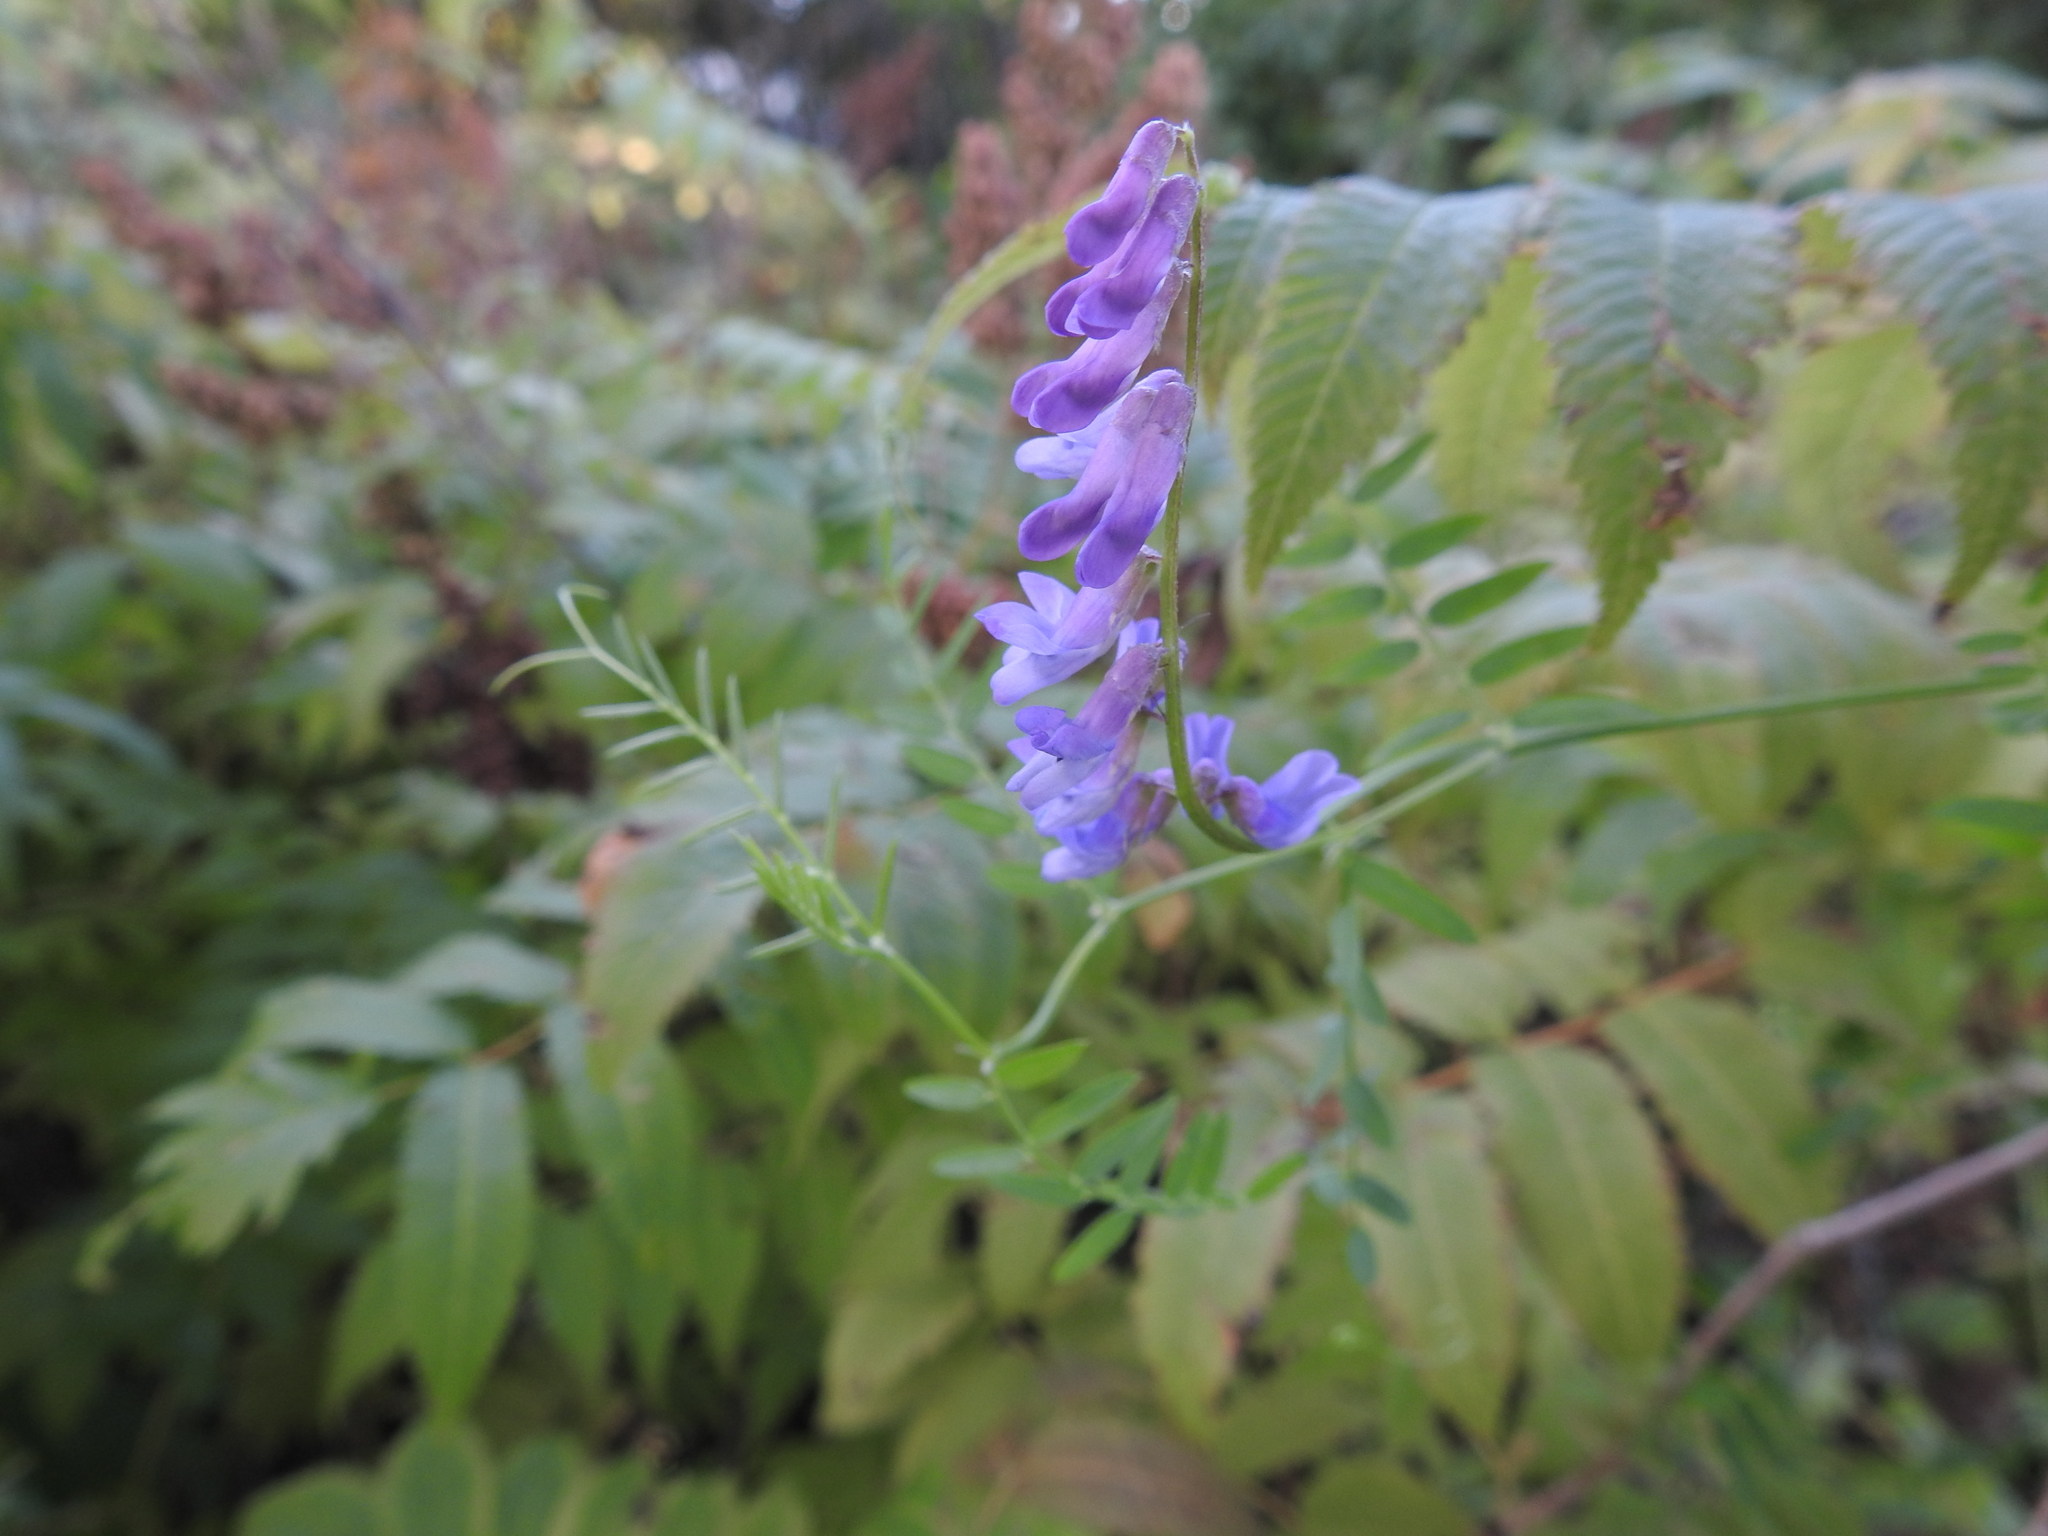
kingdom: Plantae
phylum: Tracheophyta
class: Magnoliopsida
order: Fabales
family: Fabaceae
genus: Vicia
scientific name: Vicia cracca
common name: Bird vetch
